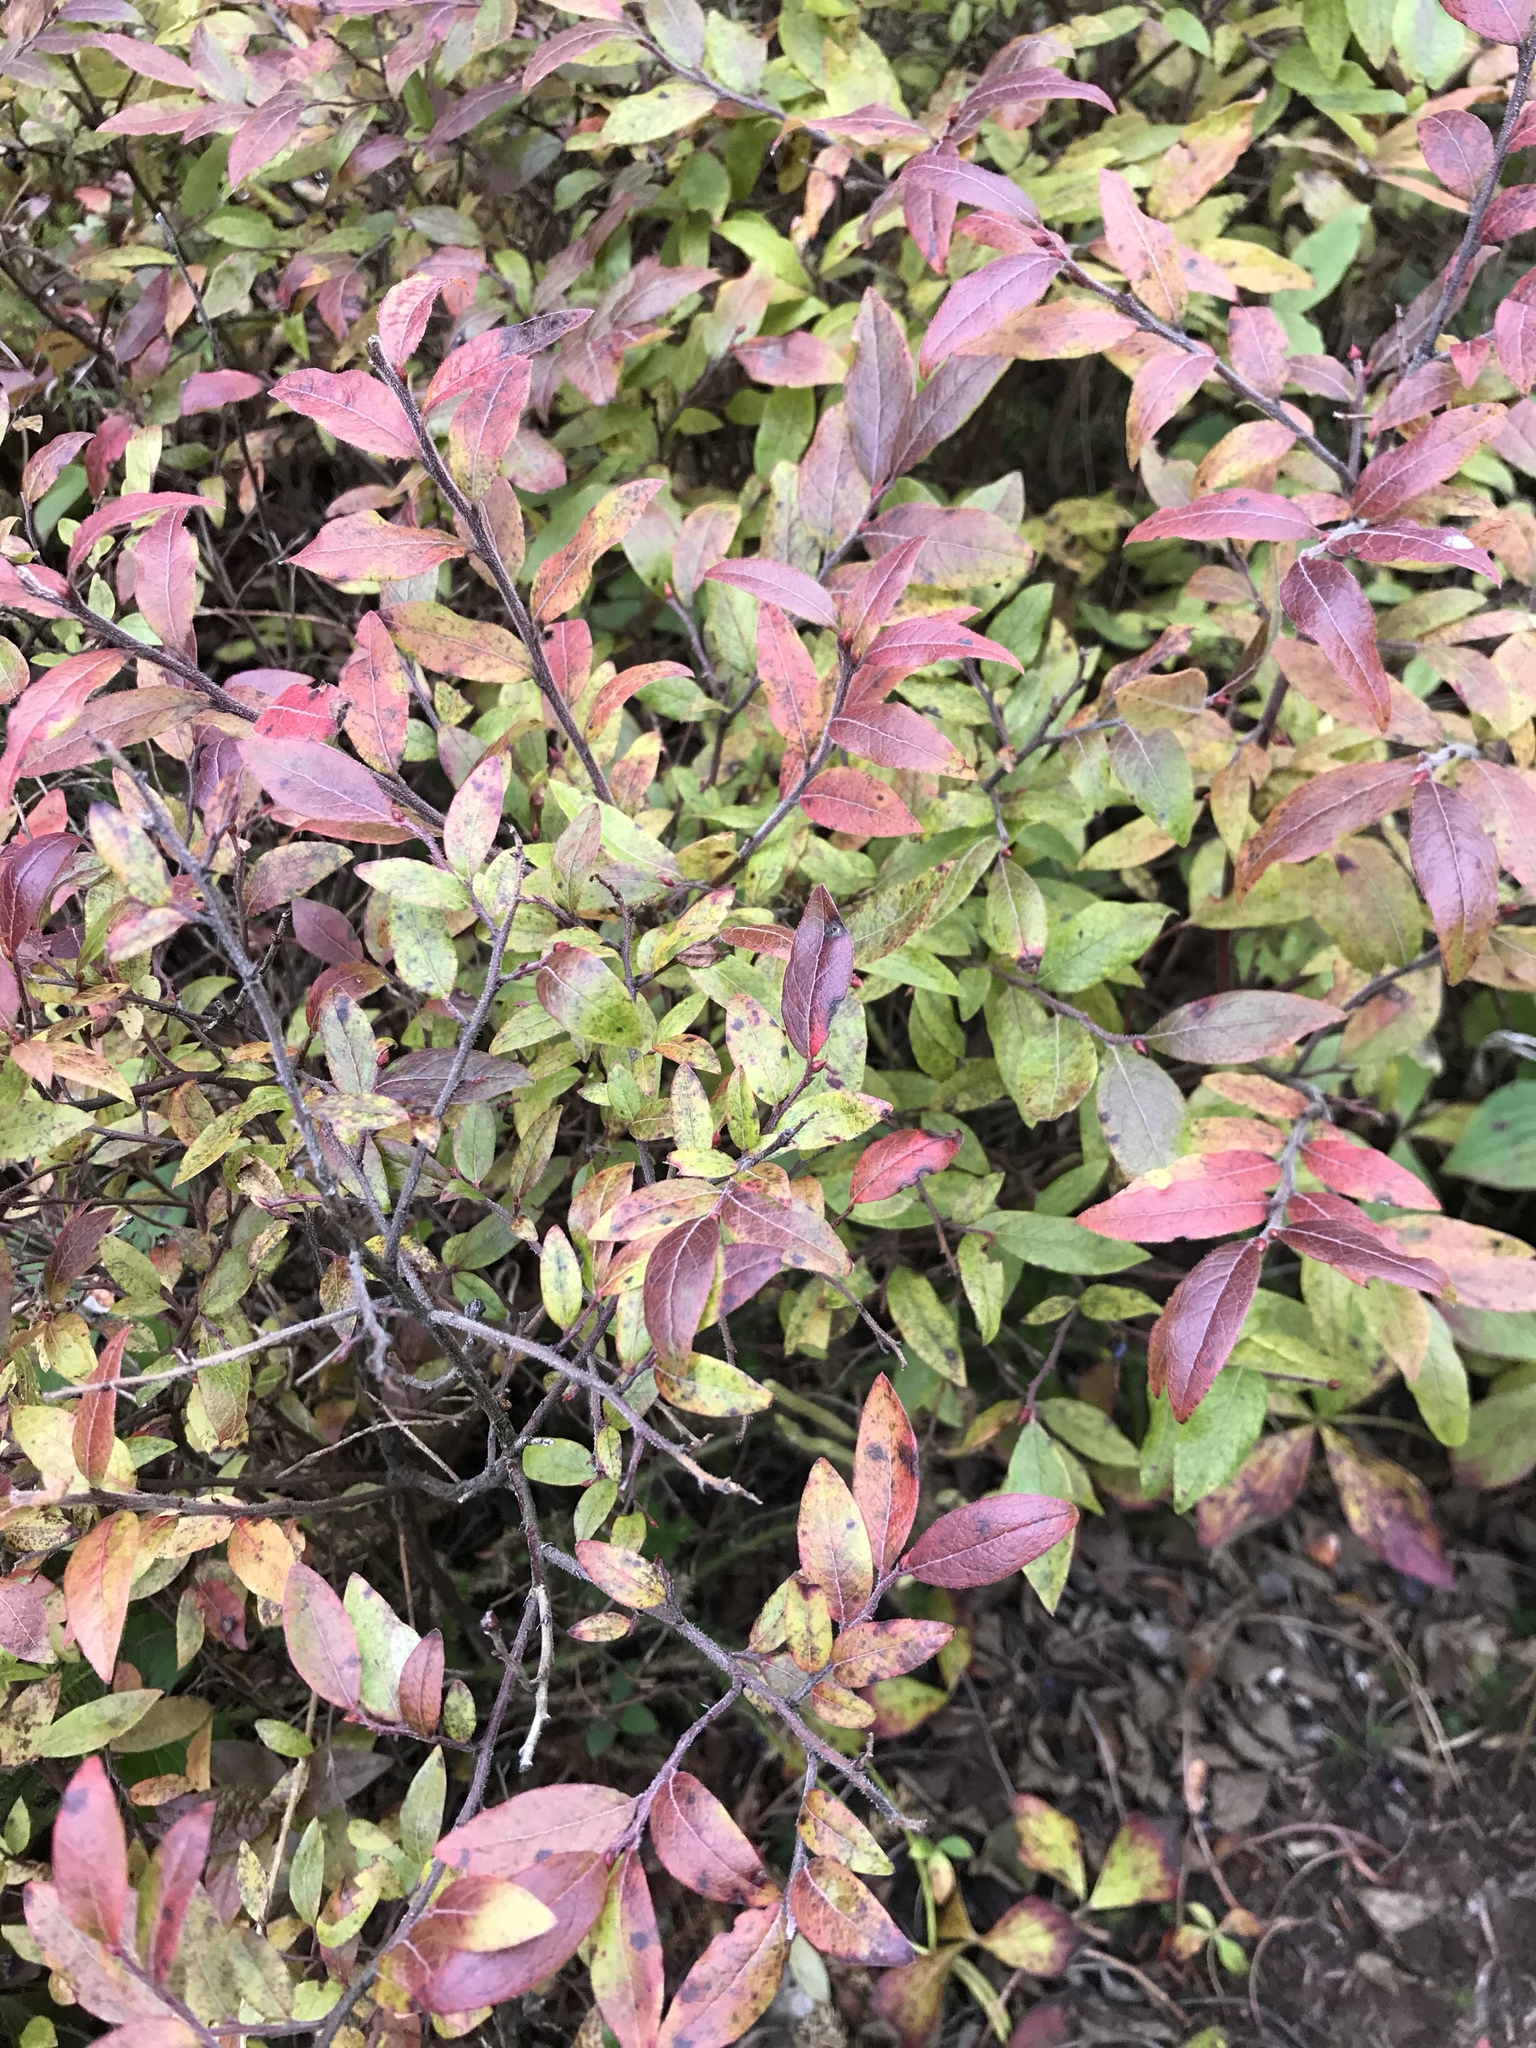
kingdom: Plantae
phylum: Tracheophyta
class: Magnoliopsida
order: Ericales
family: Ericaceae
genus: Vaccinium
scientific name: Vaccinium myrtilloides
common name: Canada blueberry
